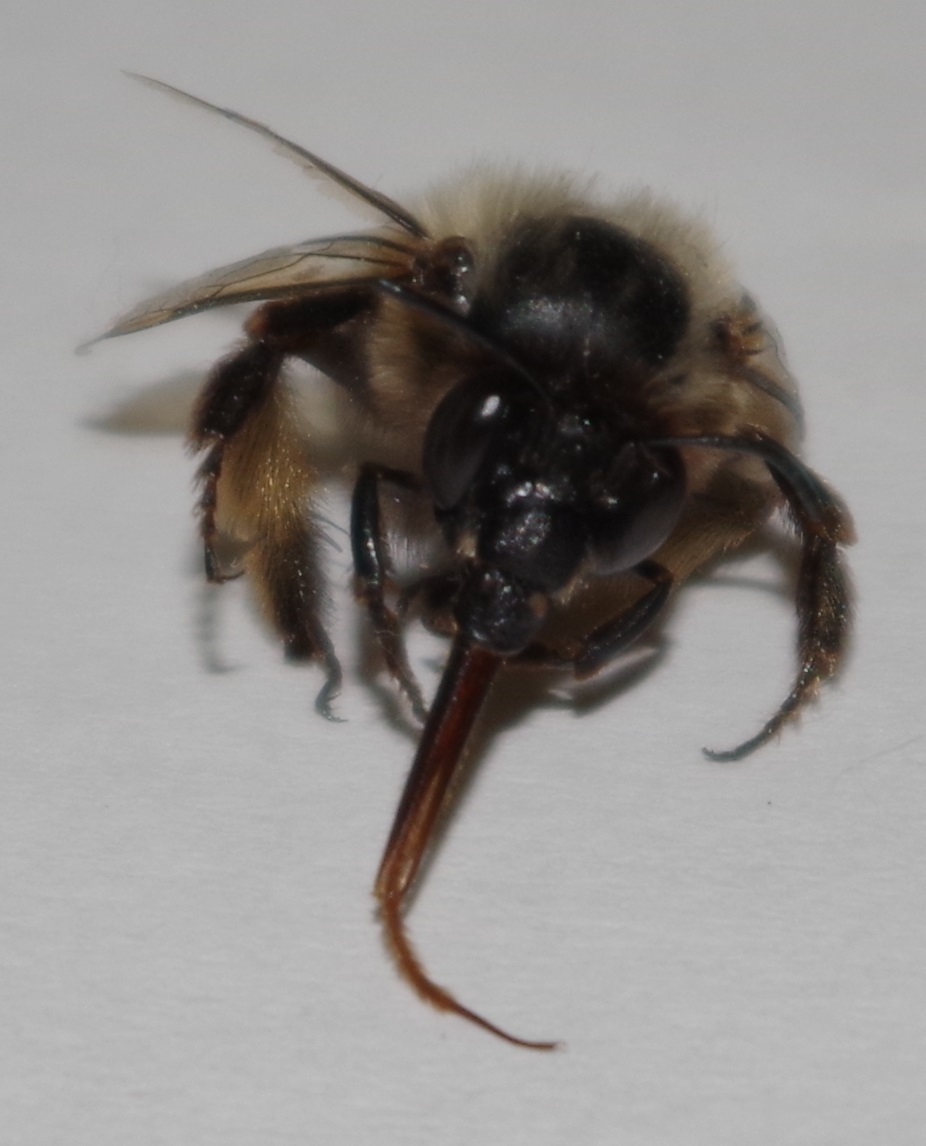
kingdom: Animalia
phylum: Arthropoda
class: Insecta
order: Hymenoptera
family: Apidae
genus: Anthophora
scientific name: Anthophora plumipes
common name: Hairy-footed flower bee
